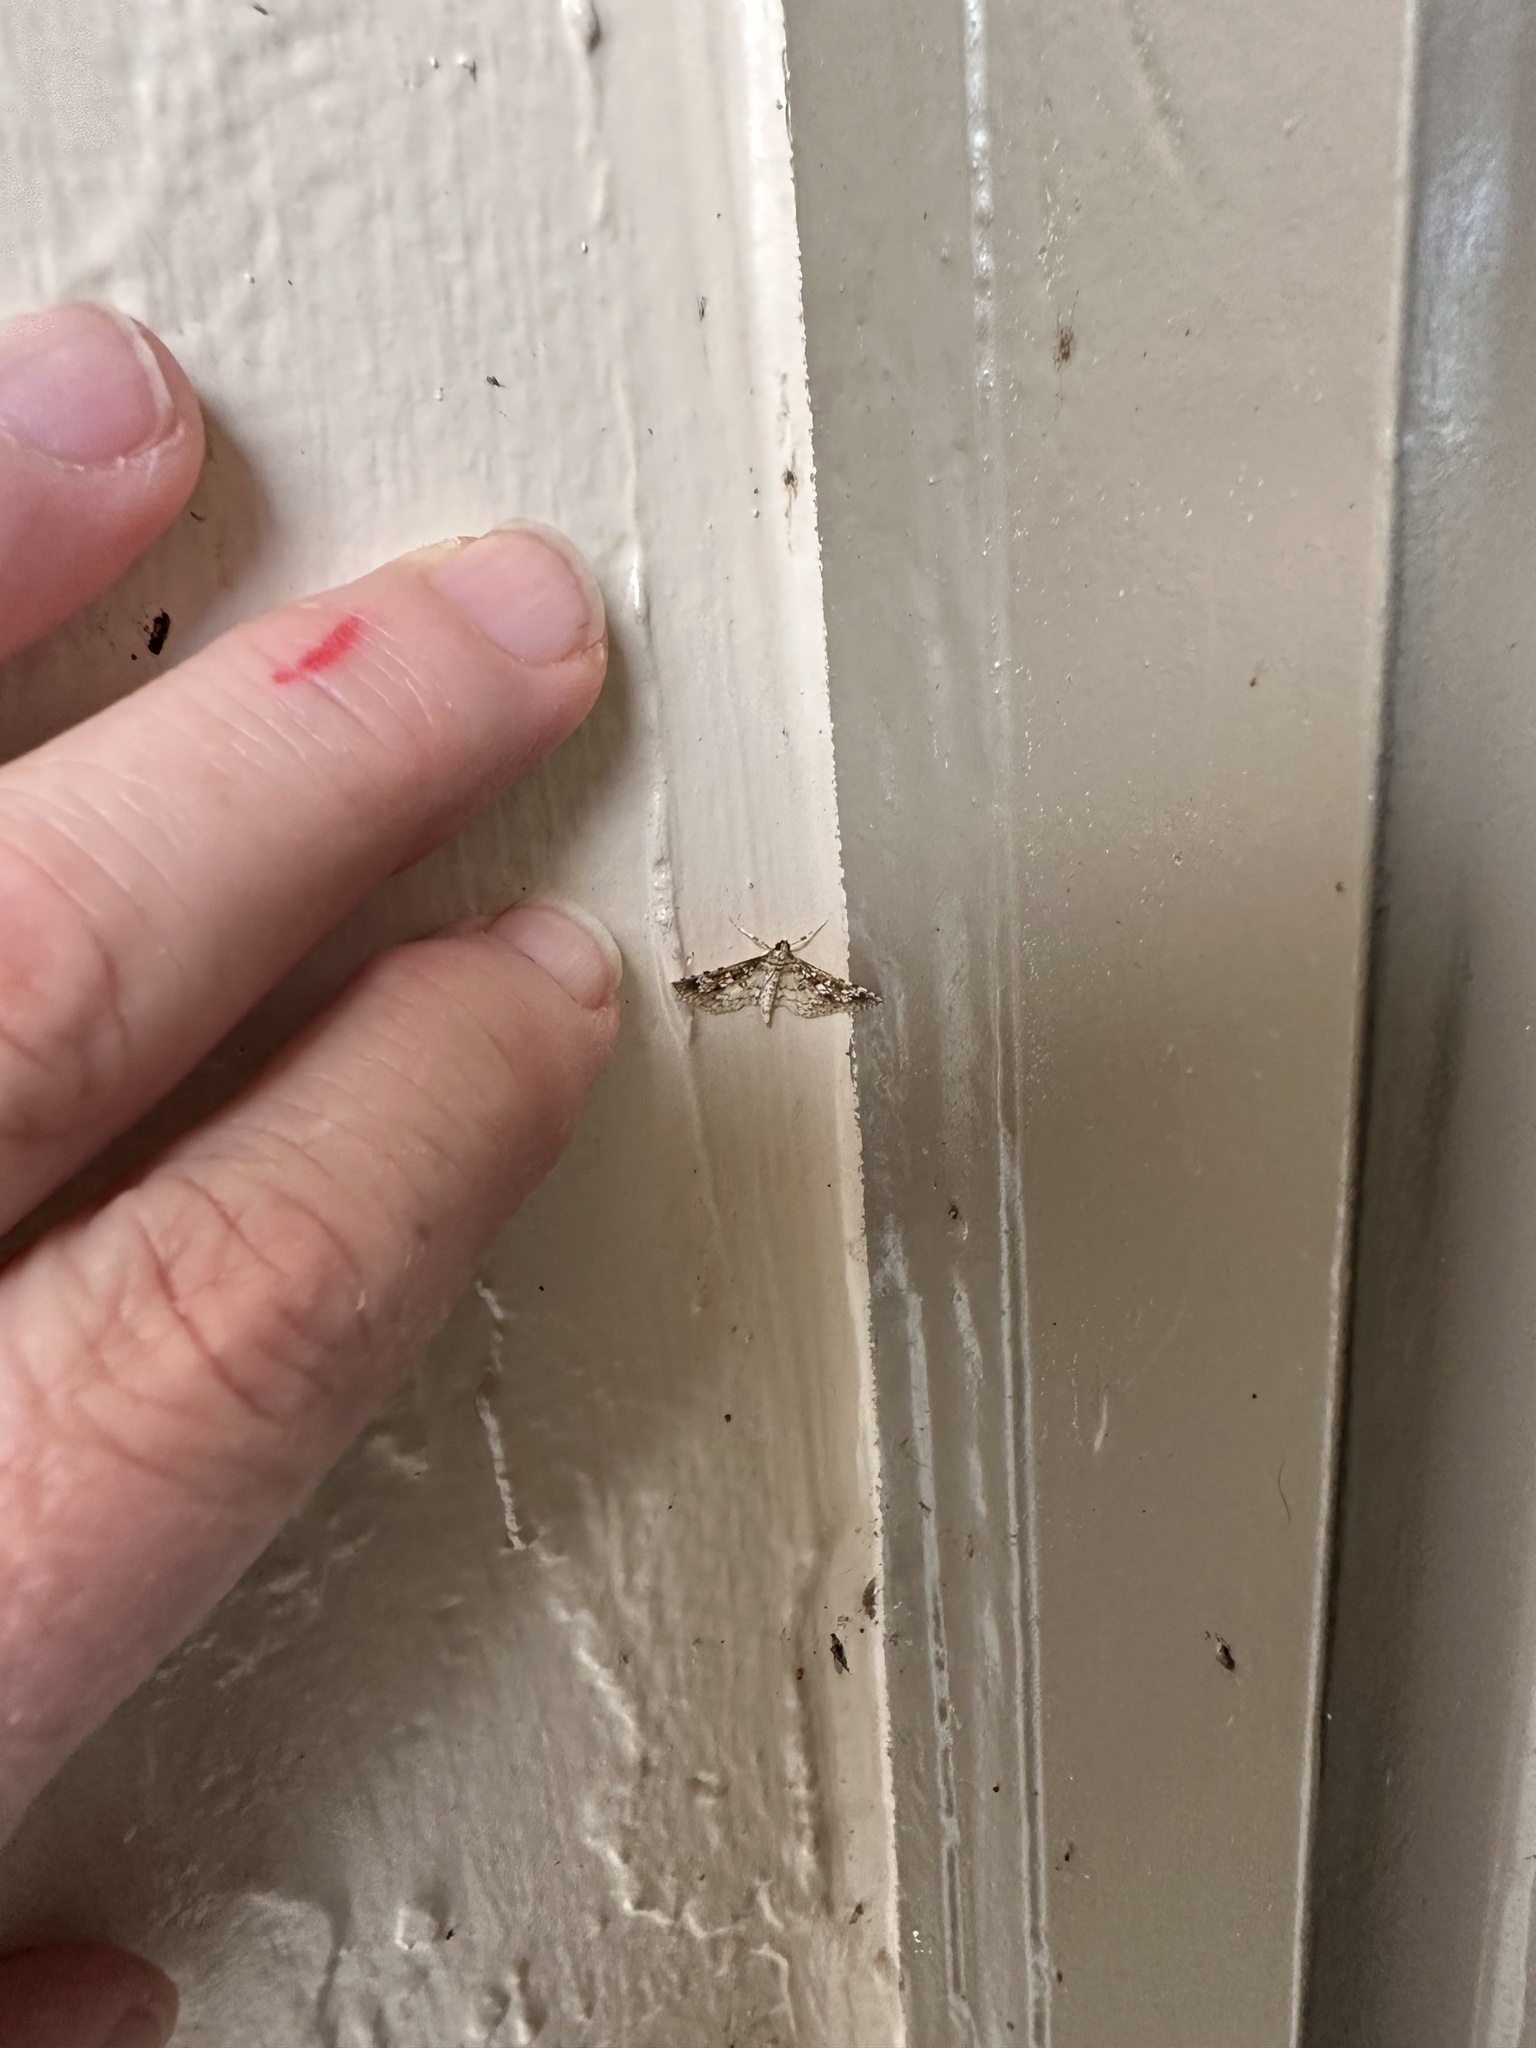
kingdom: Animalia
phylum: Arthropoda
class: Insecta
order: Lepidoptera
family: Crambidae
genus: Samea
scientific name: Samea ecclesialis
